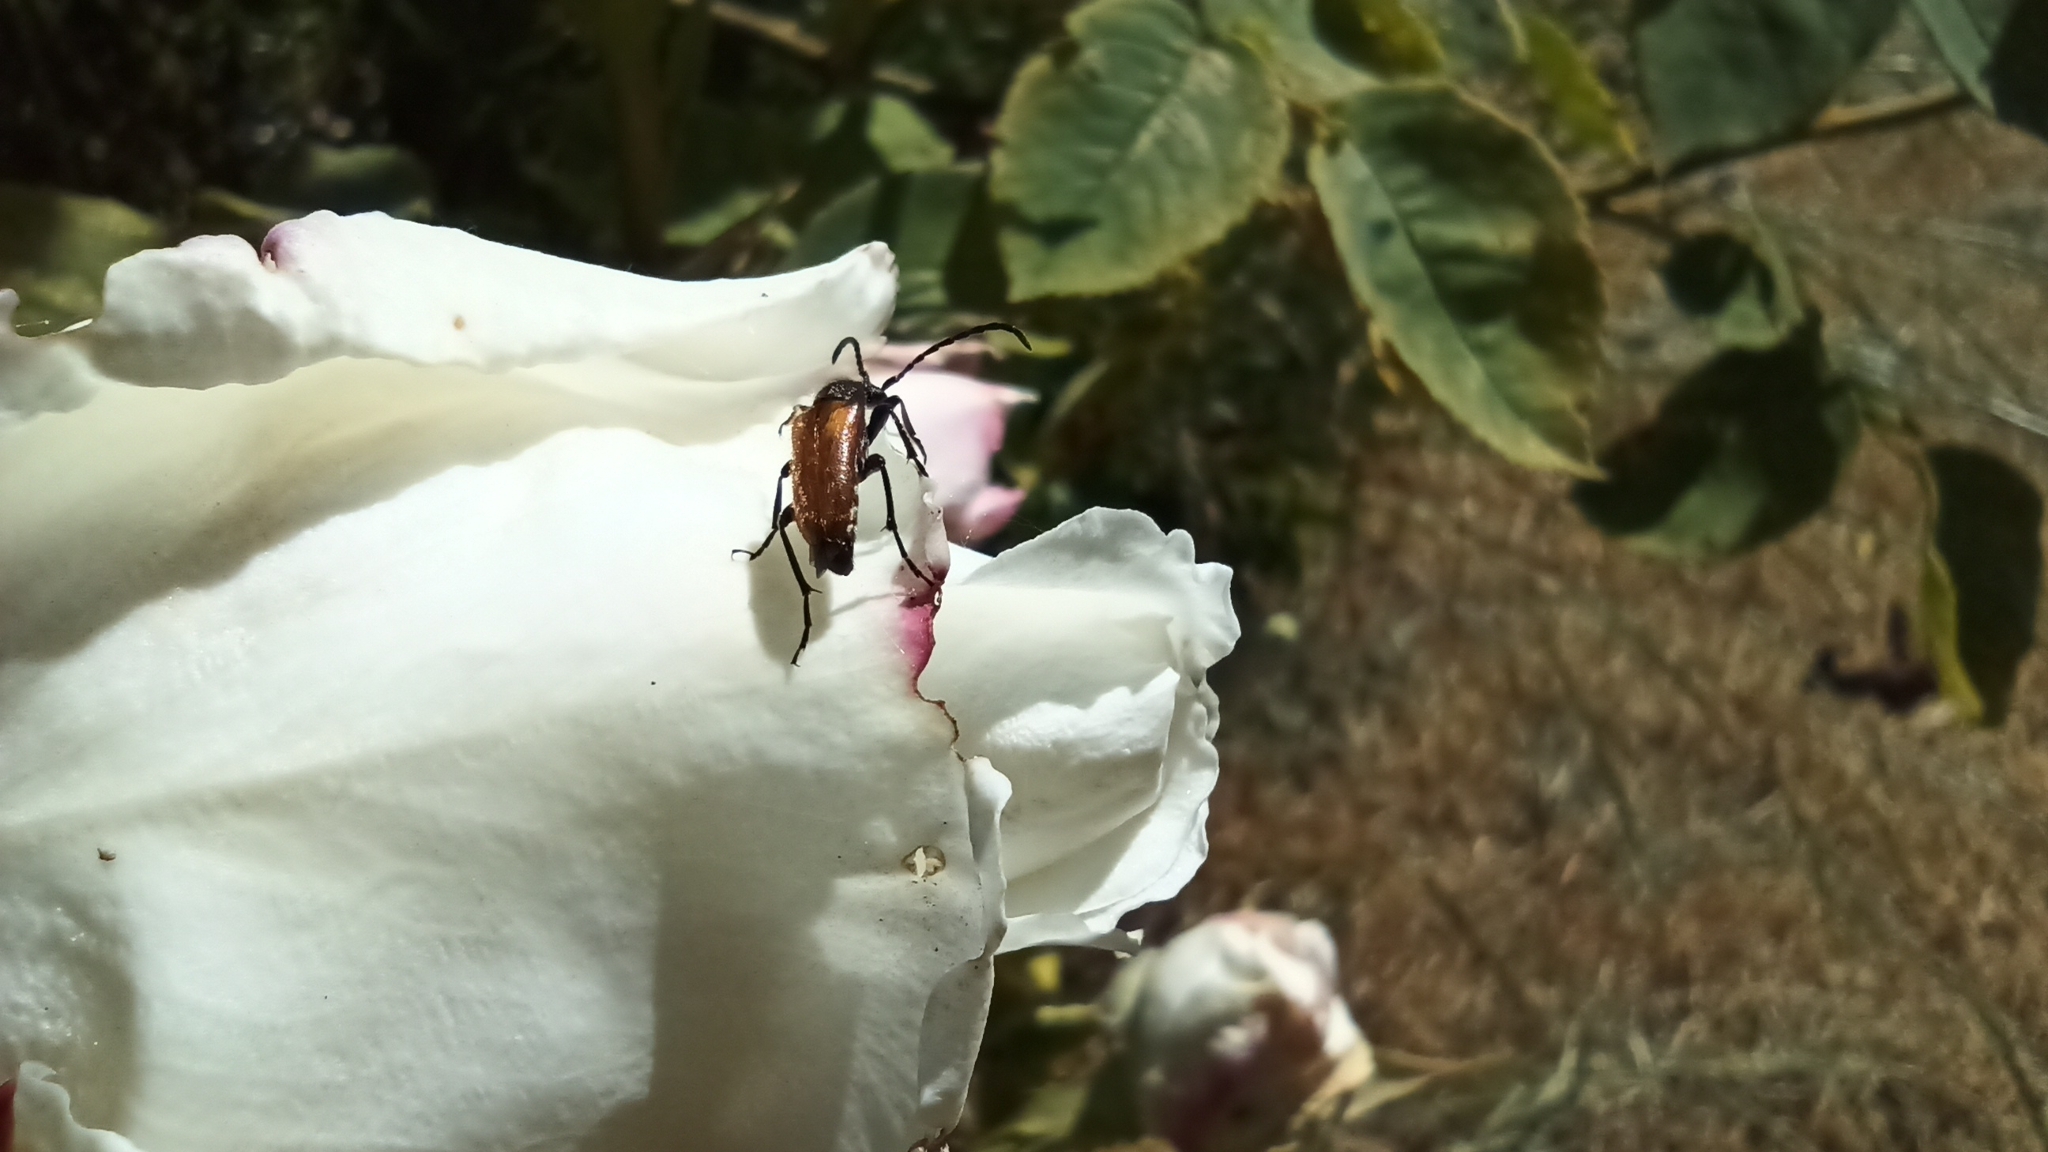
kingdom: Animalia
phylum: Arthropoda
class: Insecta
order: Coleoptera
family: Cerambycidae
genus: Pseudovadonia
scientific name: Pseudovadonia livida
